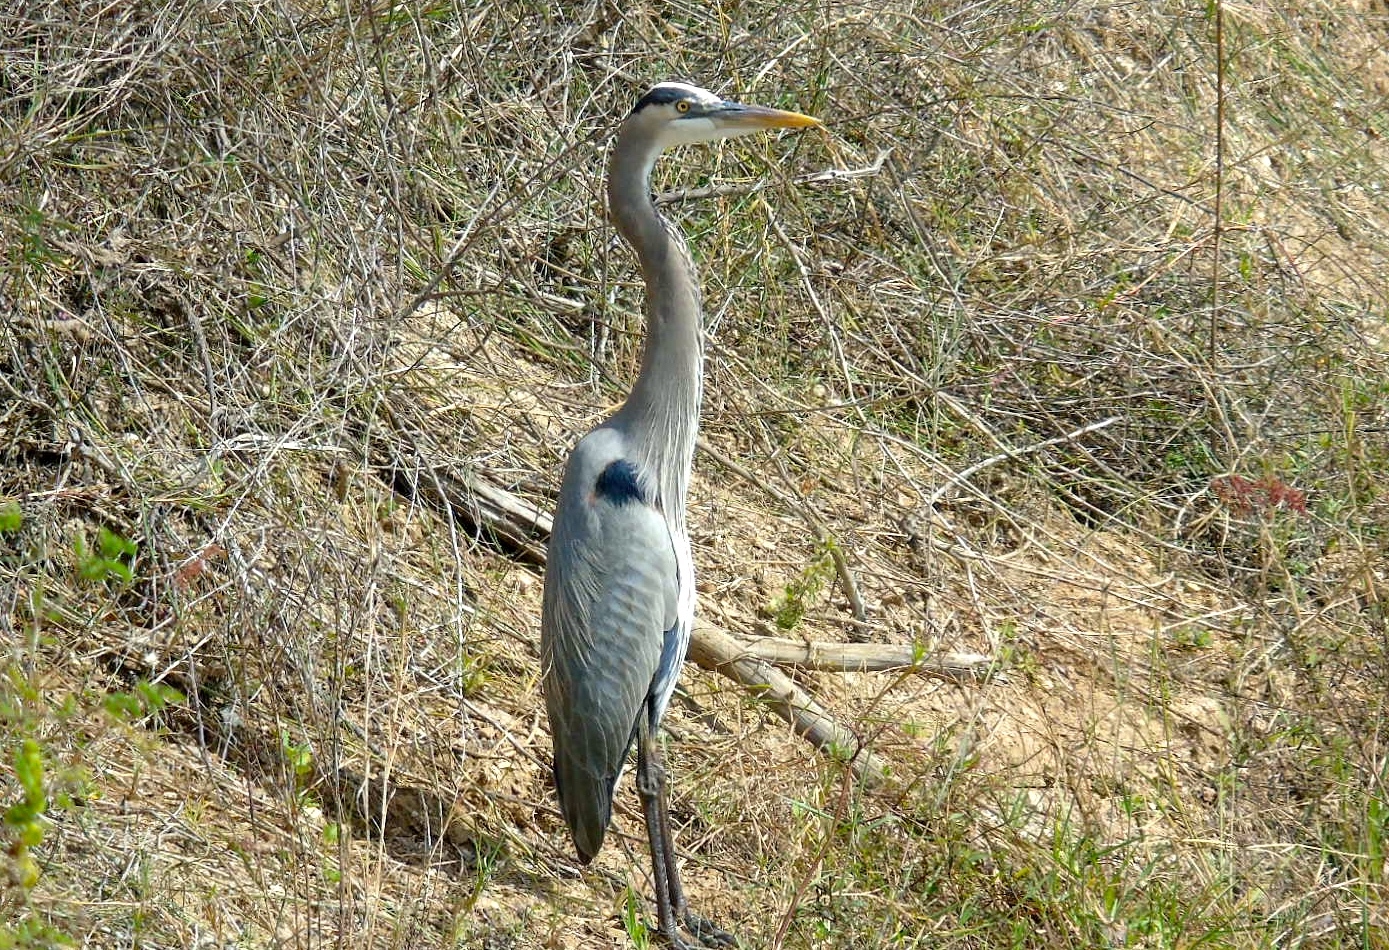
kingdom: Animalia
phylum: Chordata
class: Aves
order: Pelecaniformes
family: Ardeidae
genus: Ardea
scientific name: Ardea herodias
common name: Great blue heron
